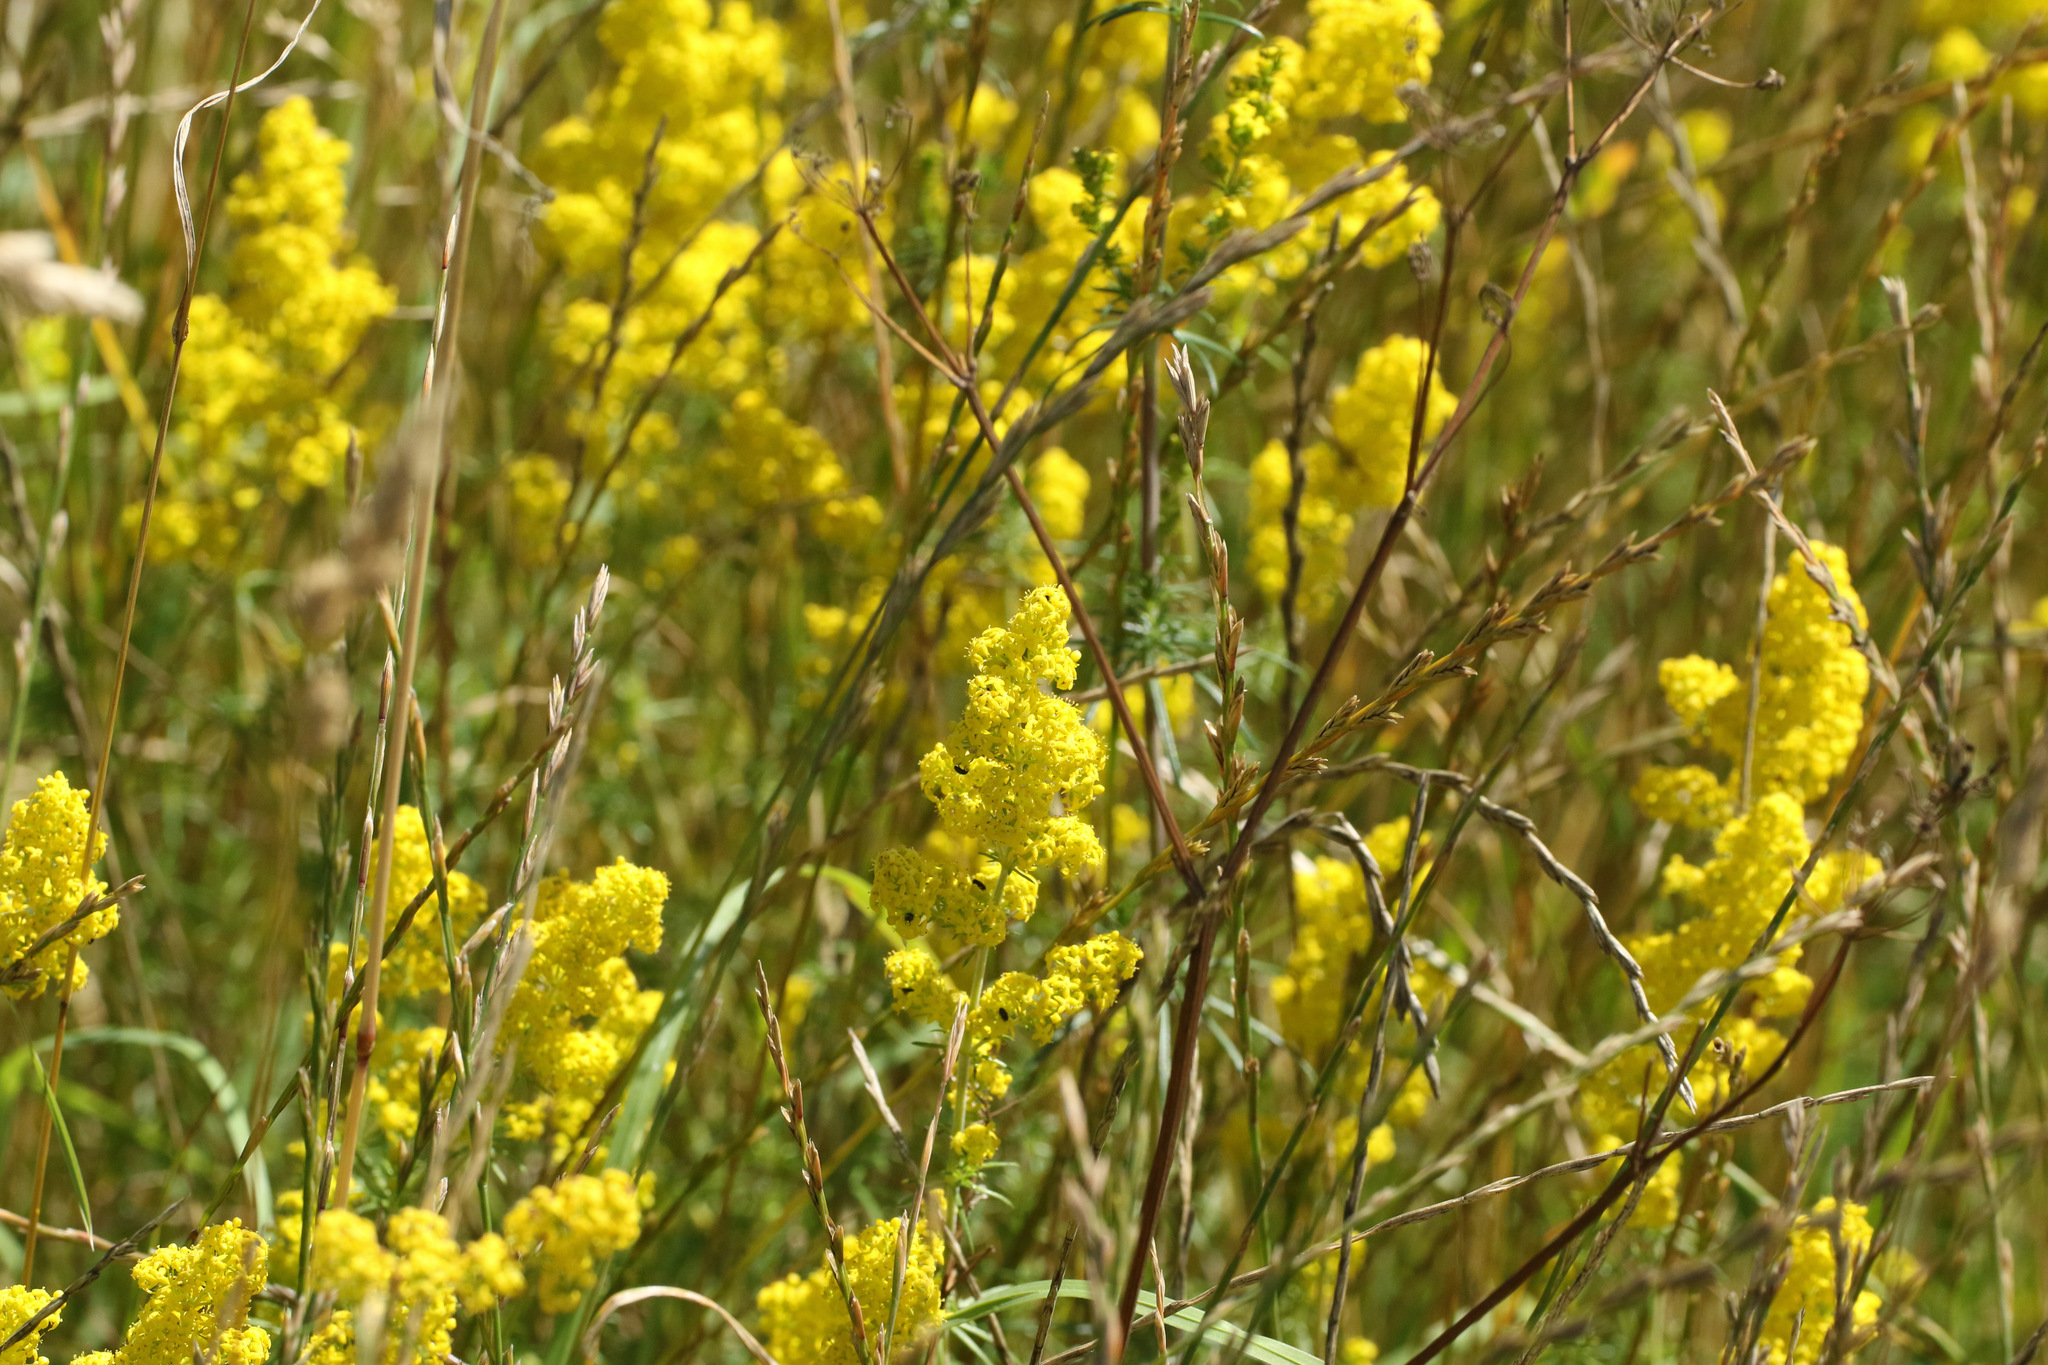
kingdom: Plantae
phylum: Tracheophyta
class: Magnoliopsida
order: Gentianales
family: Rubiaceae
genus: Galium
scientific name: Galium verum
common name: Lady's bedstraw
